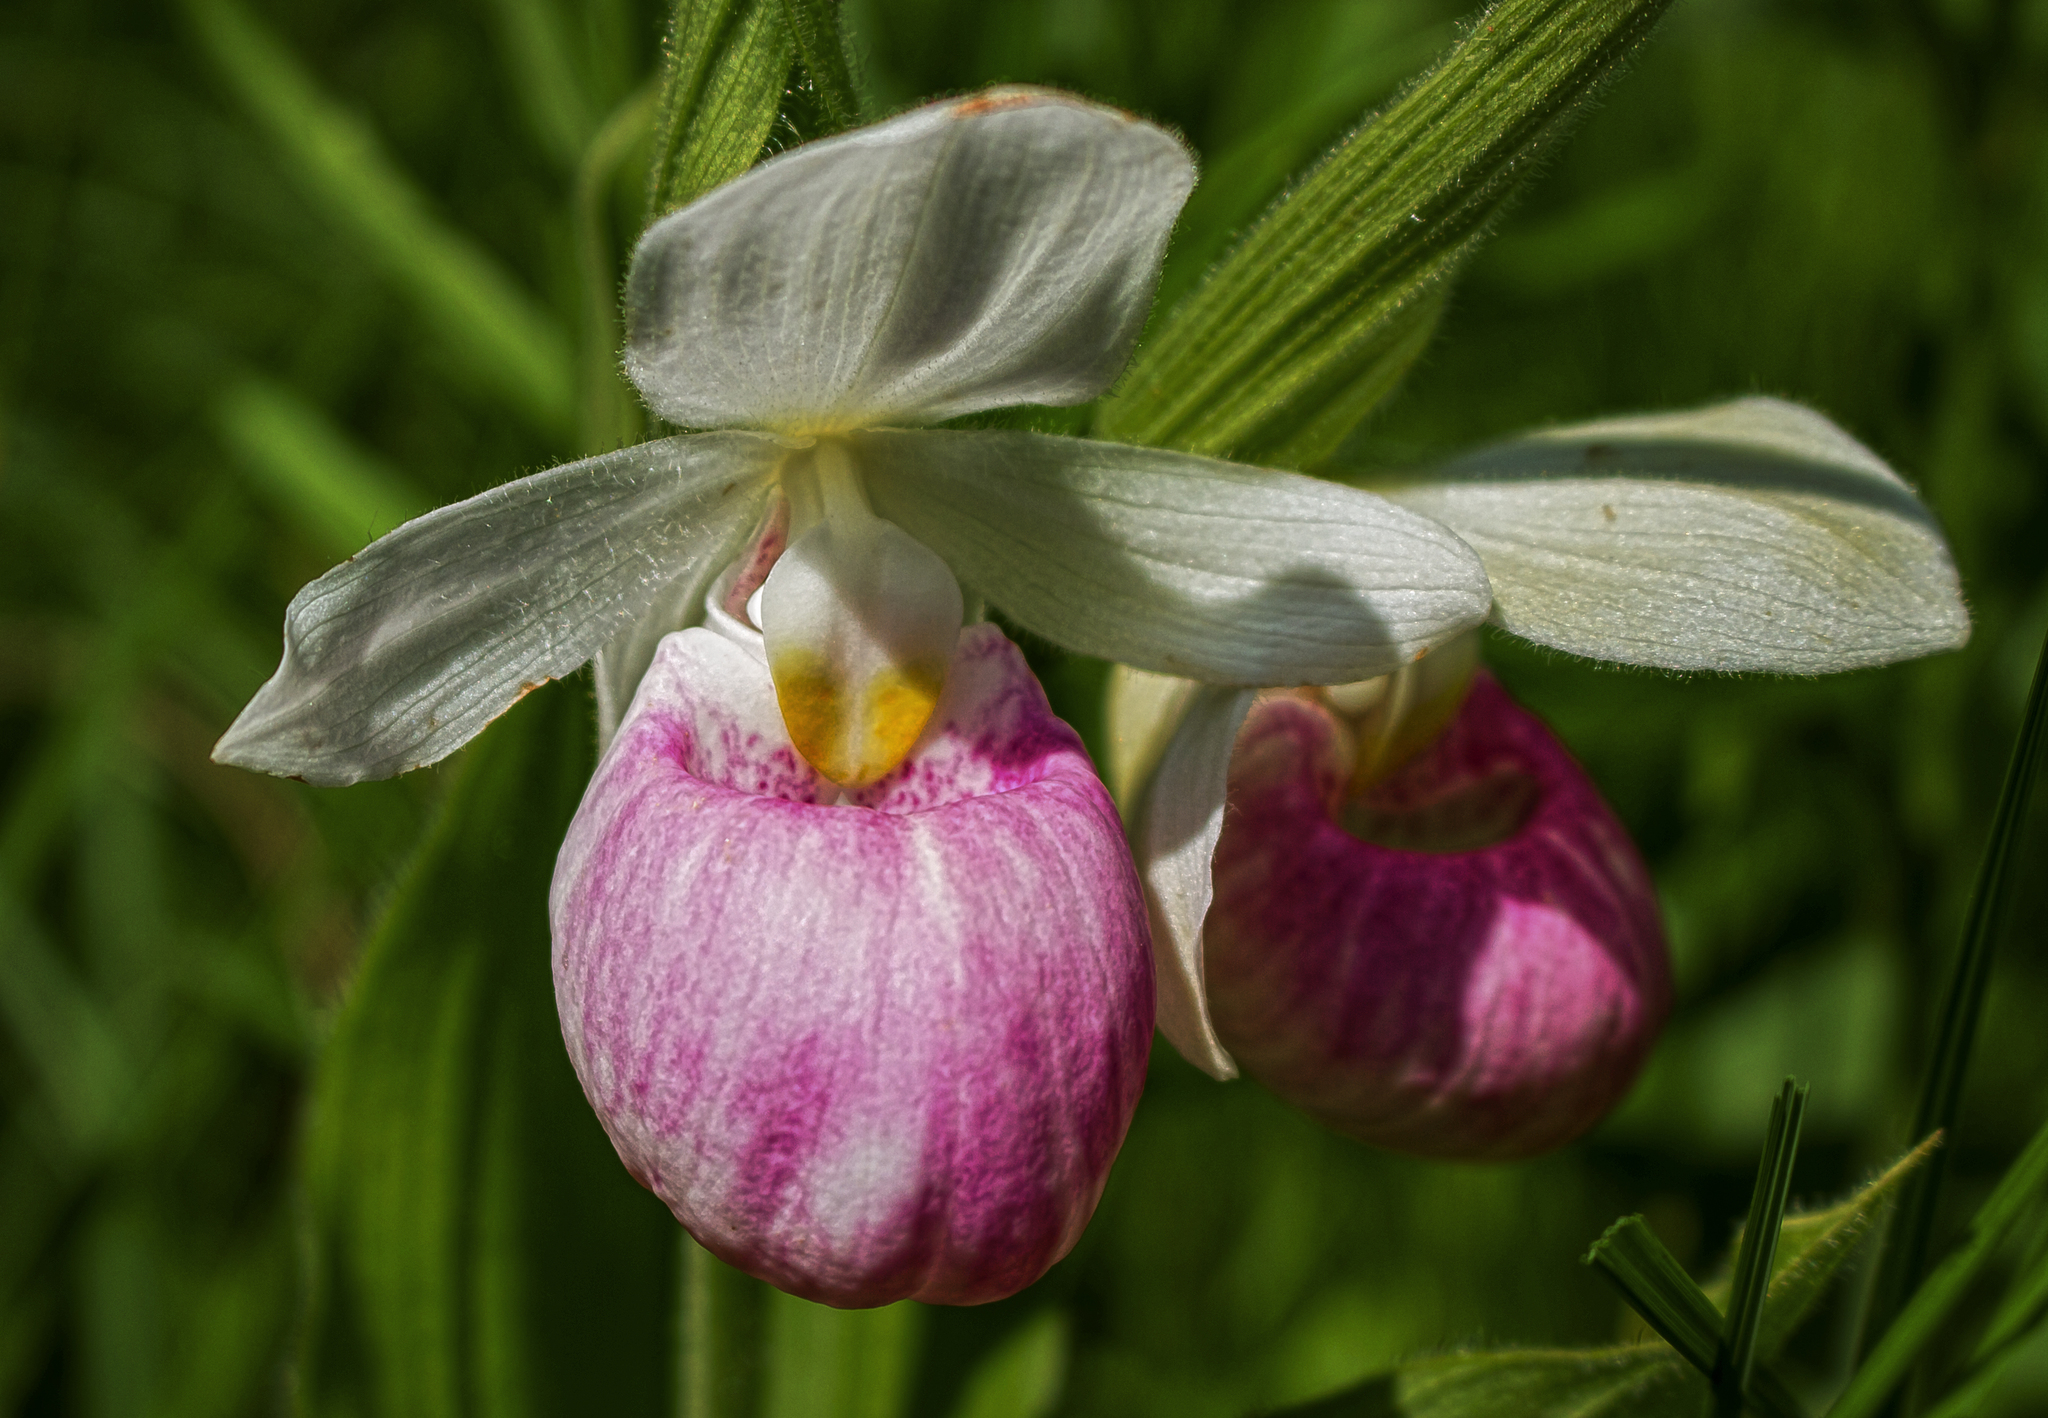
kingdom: Plantae
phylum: Tracheophyta
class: Liliopsida
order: Asparagales
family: Orchidaceae
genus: Cypripedium
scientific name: Cypripedium reginae
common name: Queen lady's-slipper
